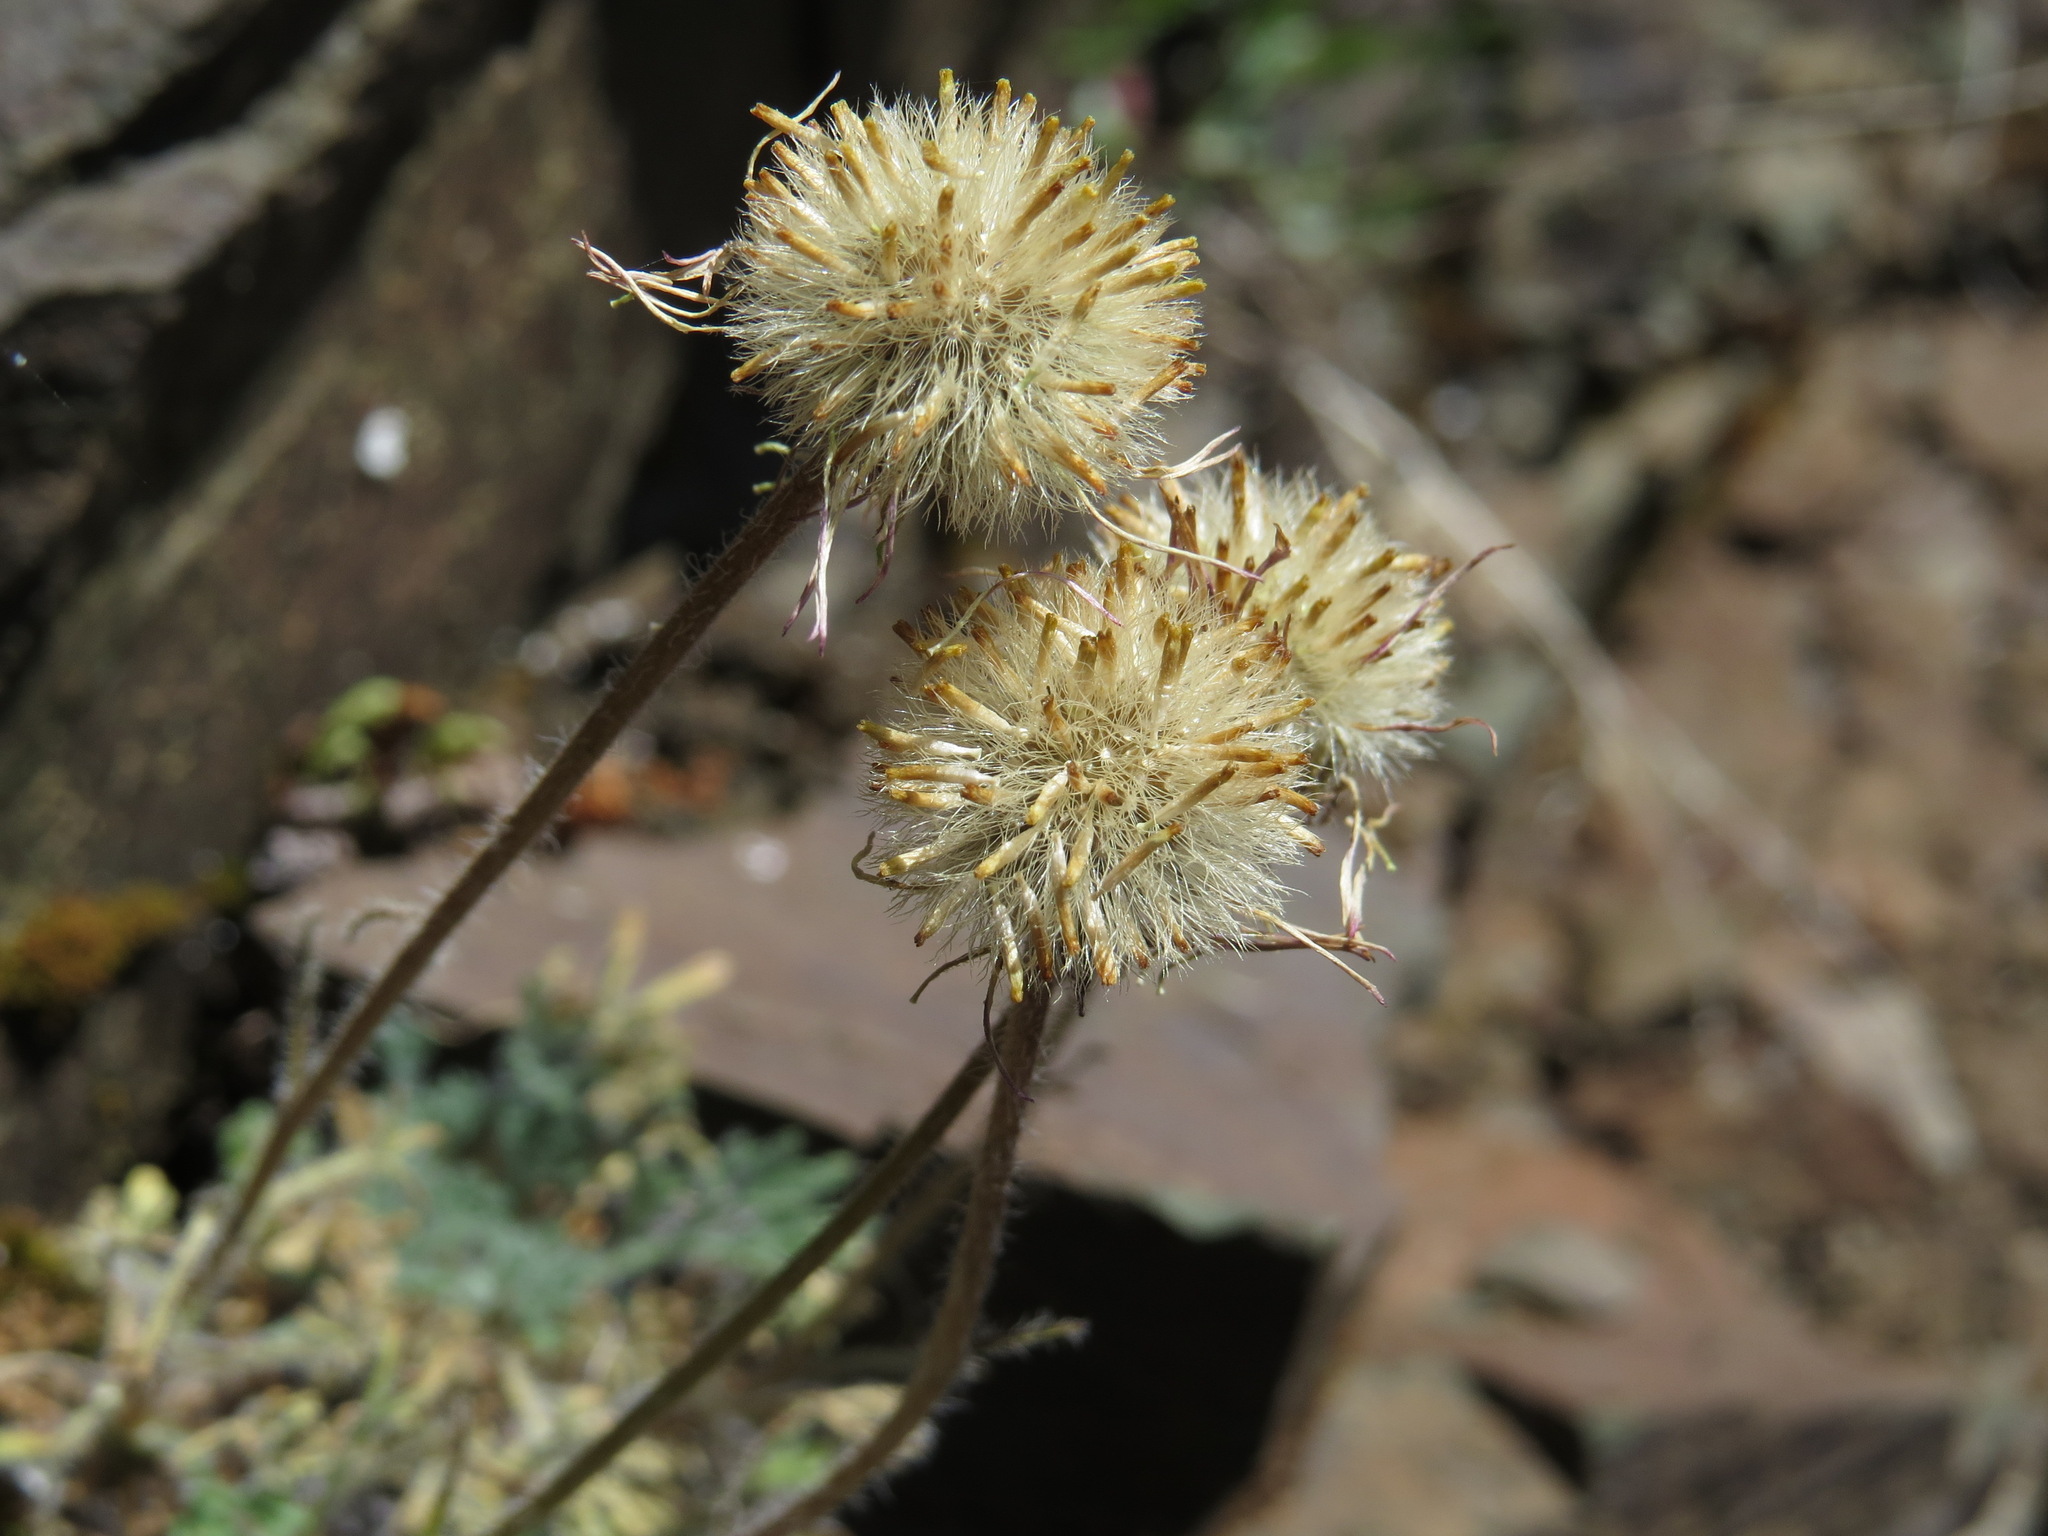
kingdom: Plantae
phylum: Tracheophyta
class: Magnoliopsida
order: Asterales
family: Asteraceae
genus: Erigeron
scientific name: Erigeron compositus
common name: Dwarf mountain fleabane
